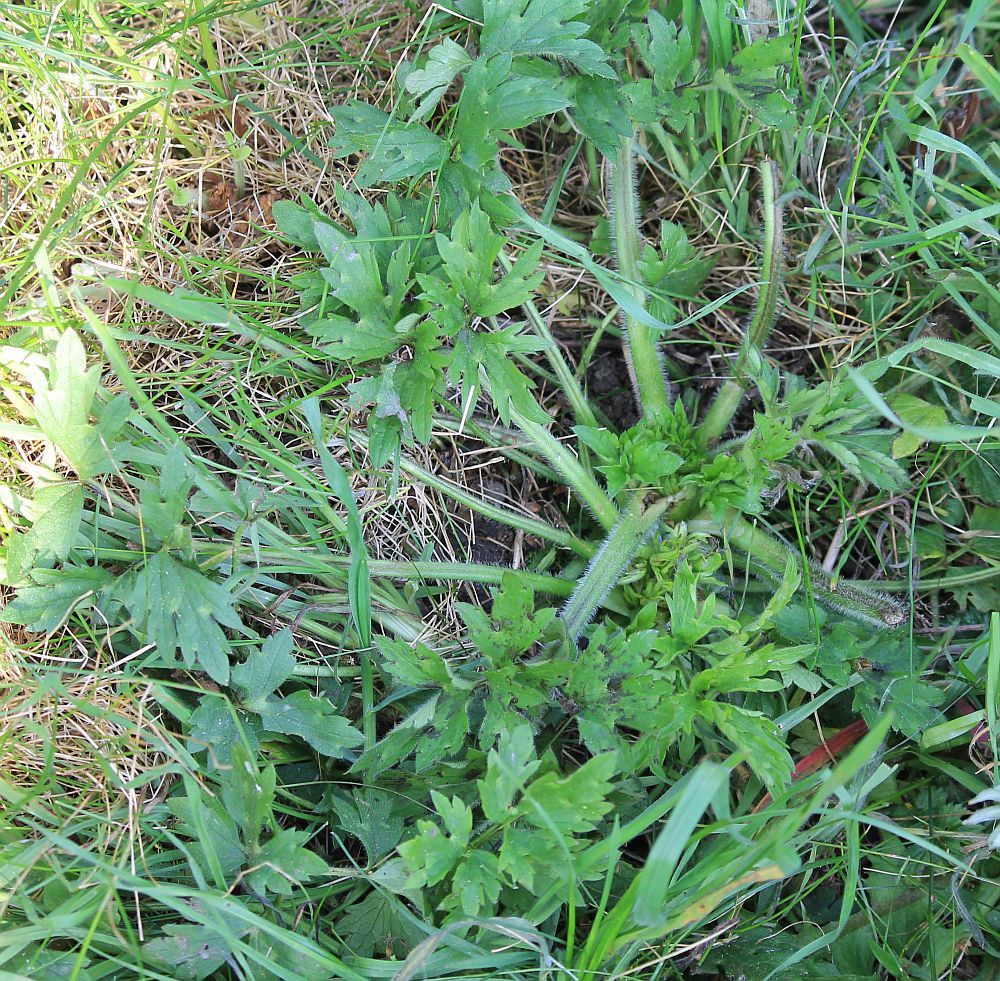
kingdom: Plantae
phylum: Tracheophyta
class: Magnoliopsida
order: Ranunculales
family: Ranunculaceae
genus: Ranunculus
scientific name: Ranunculus repens
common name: Creeping buttercup
